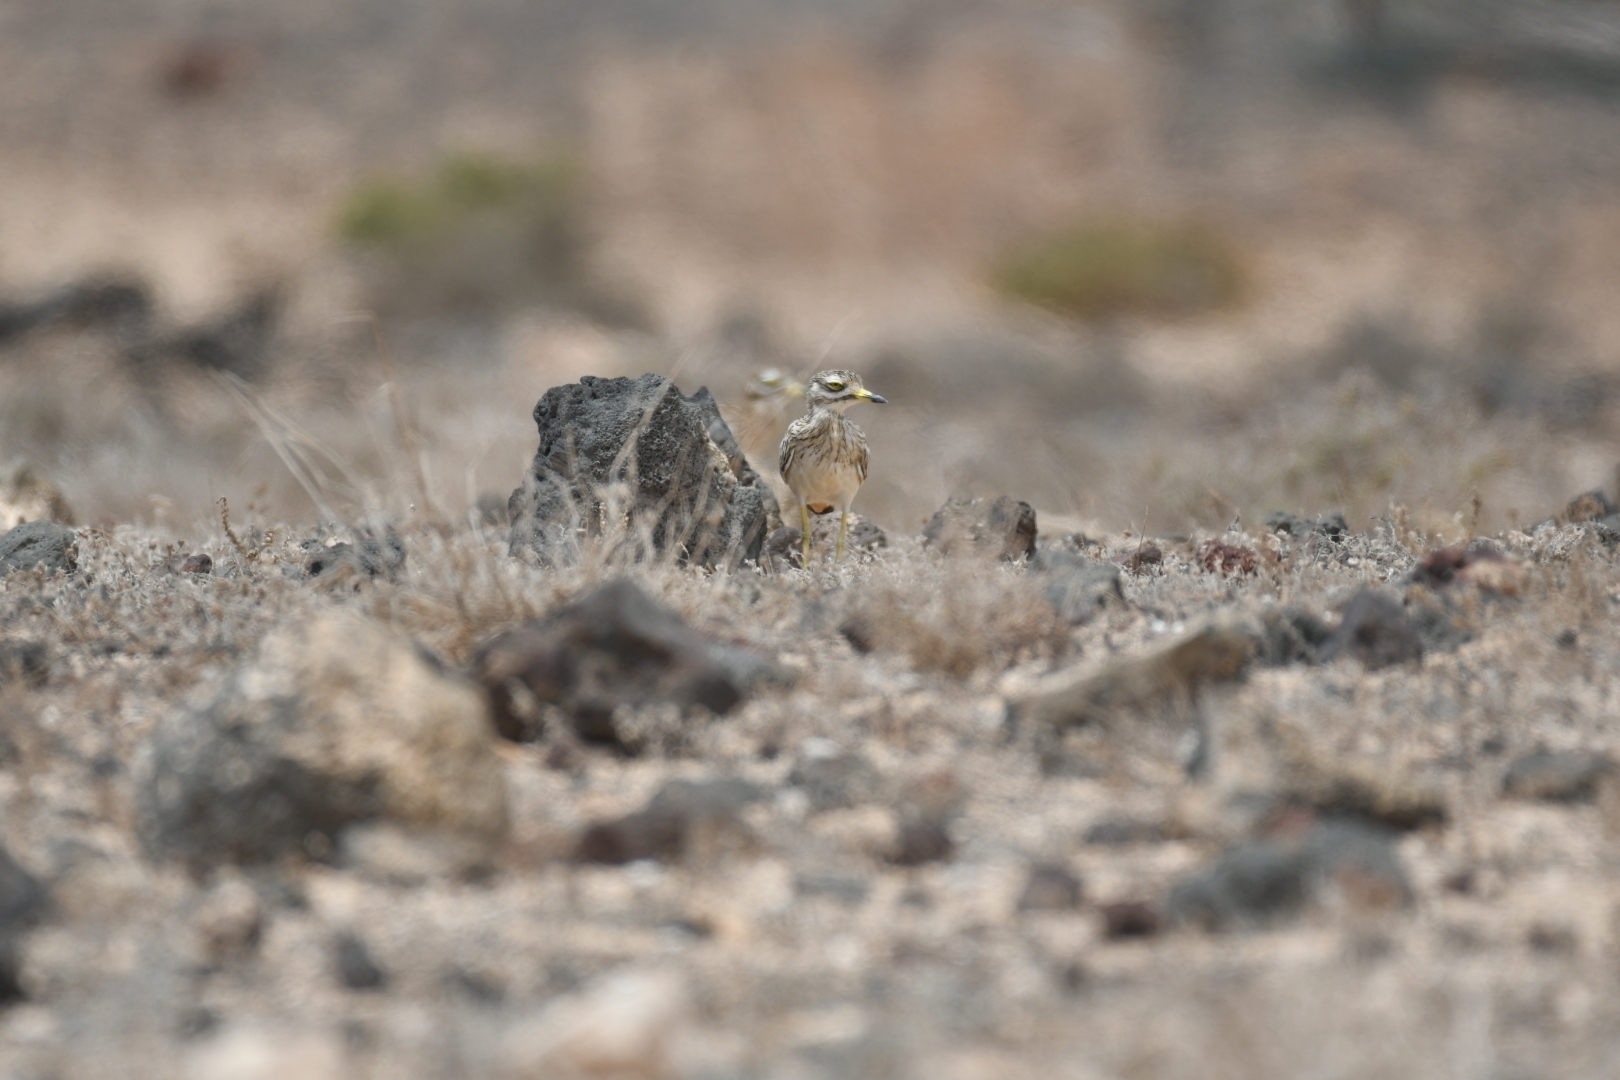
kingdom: Animalia
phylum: Chordata
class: Aves
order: Charadriiformes
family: Burhinidae
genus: Burhinus
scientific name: Burhinus oedicnemus
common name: Eurasian stone-curlew
